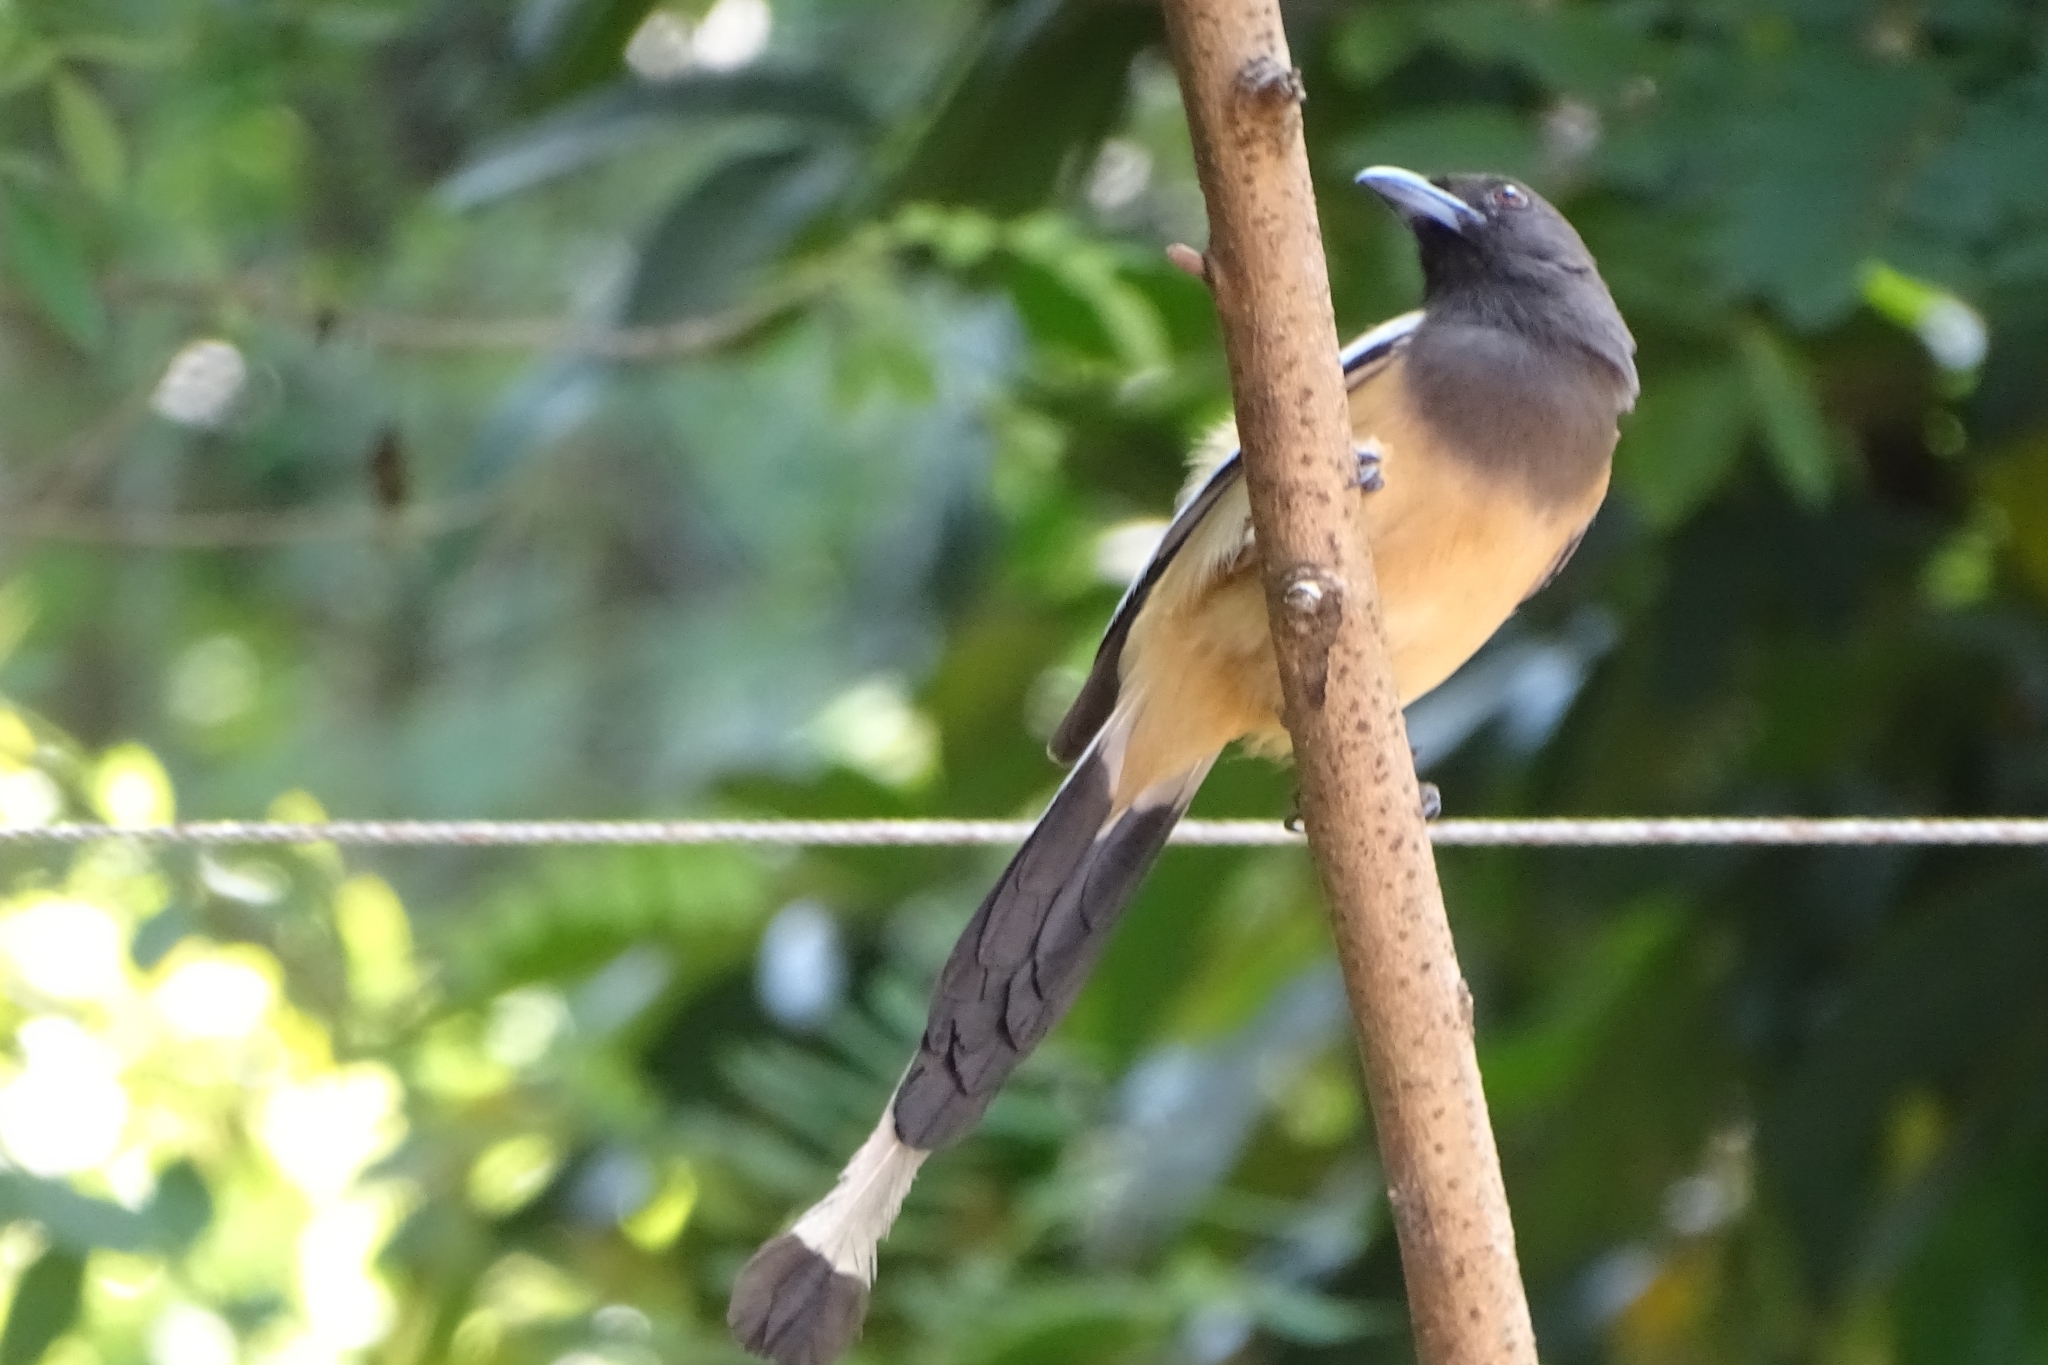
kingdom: Animalia
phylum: Chordata
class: Aves
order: Passeriformes
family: Corvidae
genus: Dendrocitta
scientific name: Dendrocitta vagabunda
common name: Rufous treepie
